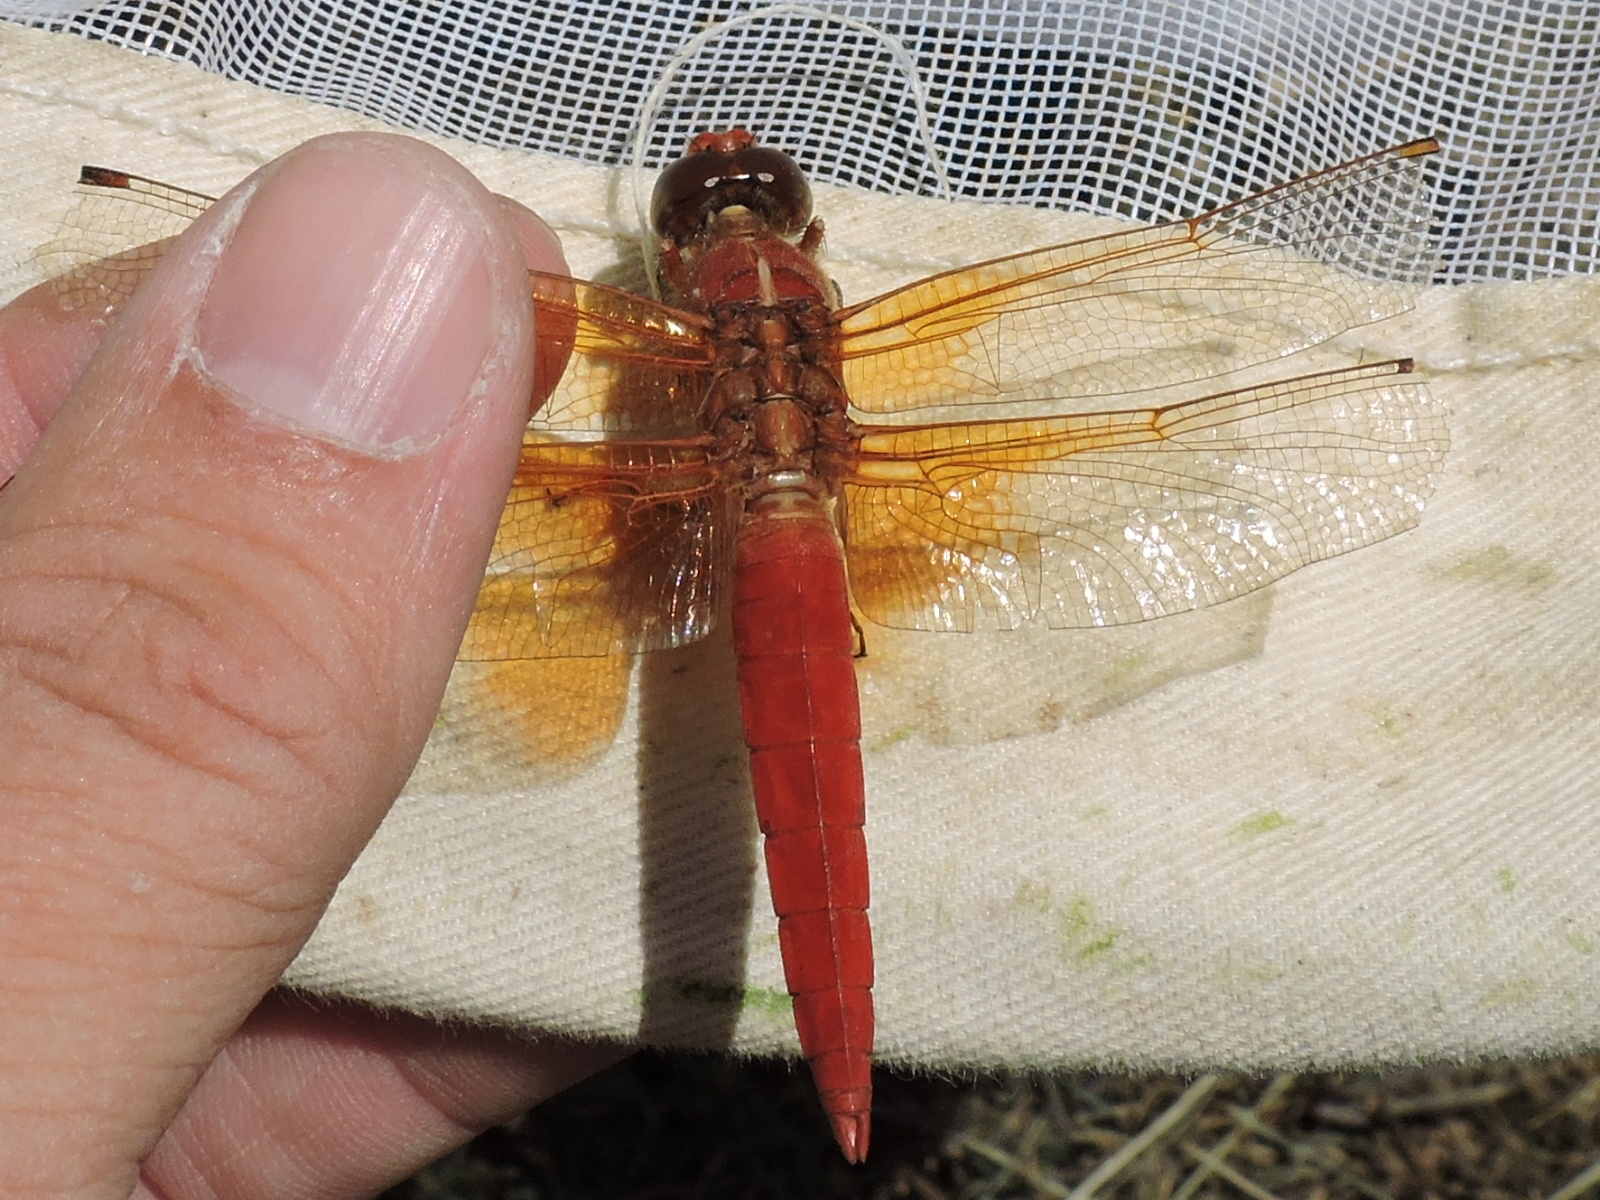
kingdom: Animalia
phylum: Arthropoda
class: Insecta
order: Odonata
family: Libellulidae
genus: Libellula
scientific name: Libellula croceipennis
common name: Neon skimmer
